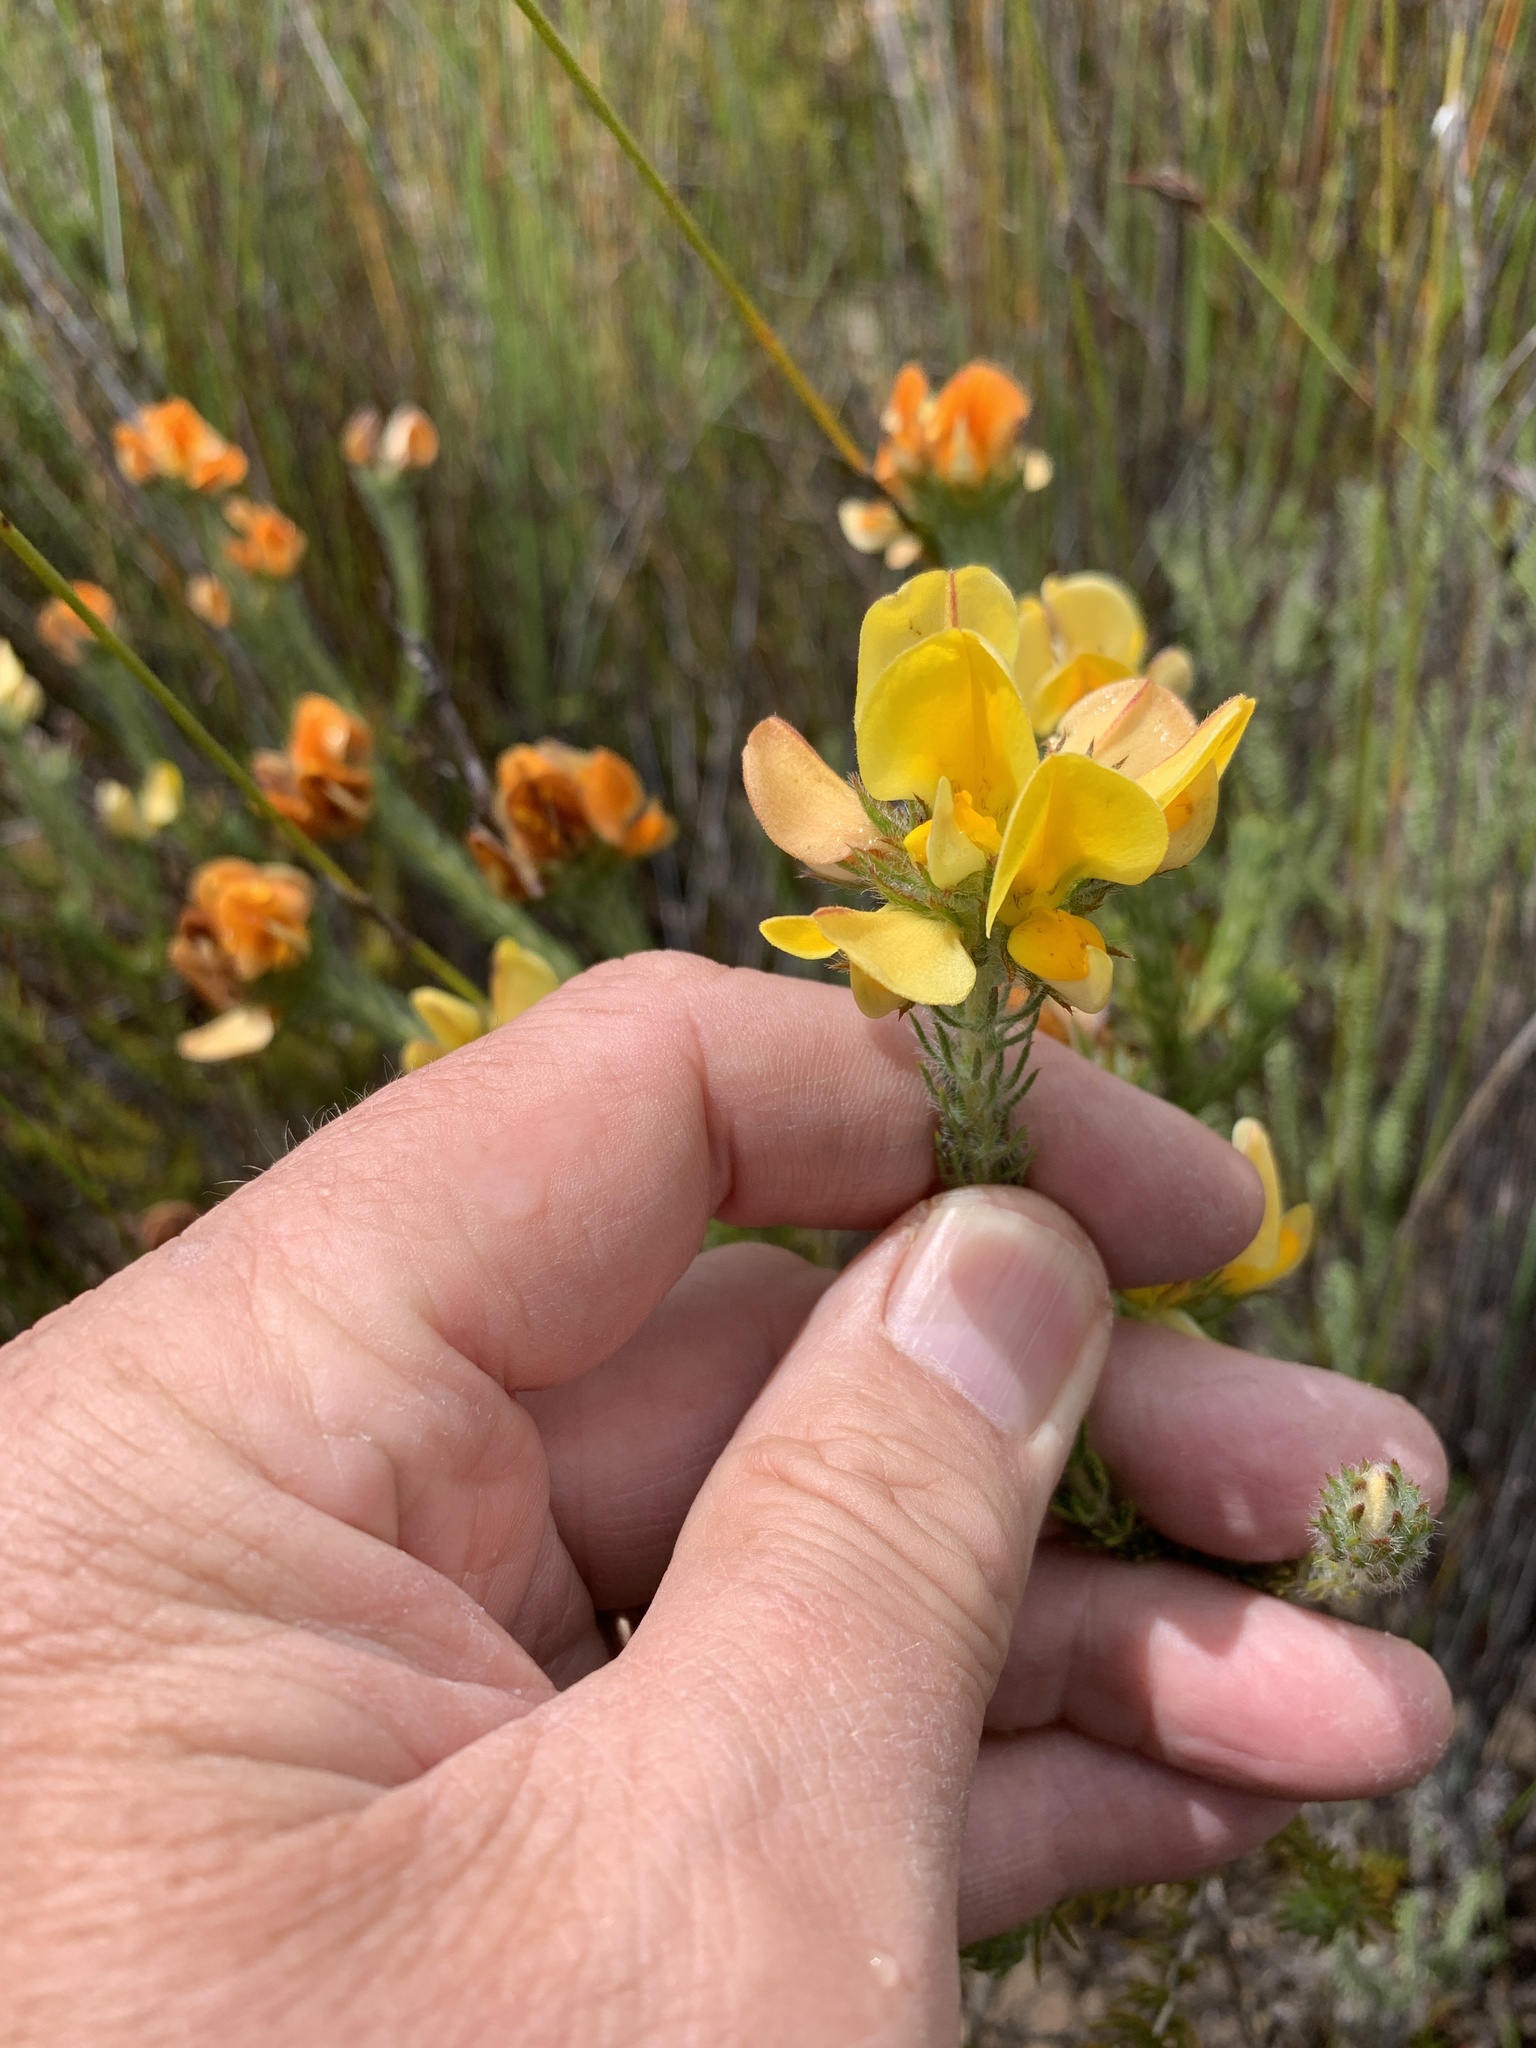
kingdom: Plantae
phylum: Tracheophyta
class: Magnoliopsida
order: Fabales
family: Fabaceae
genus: Aspalathus
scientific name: Aspalathus ciliaris
